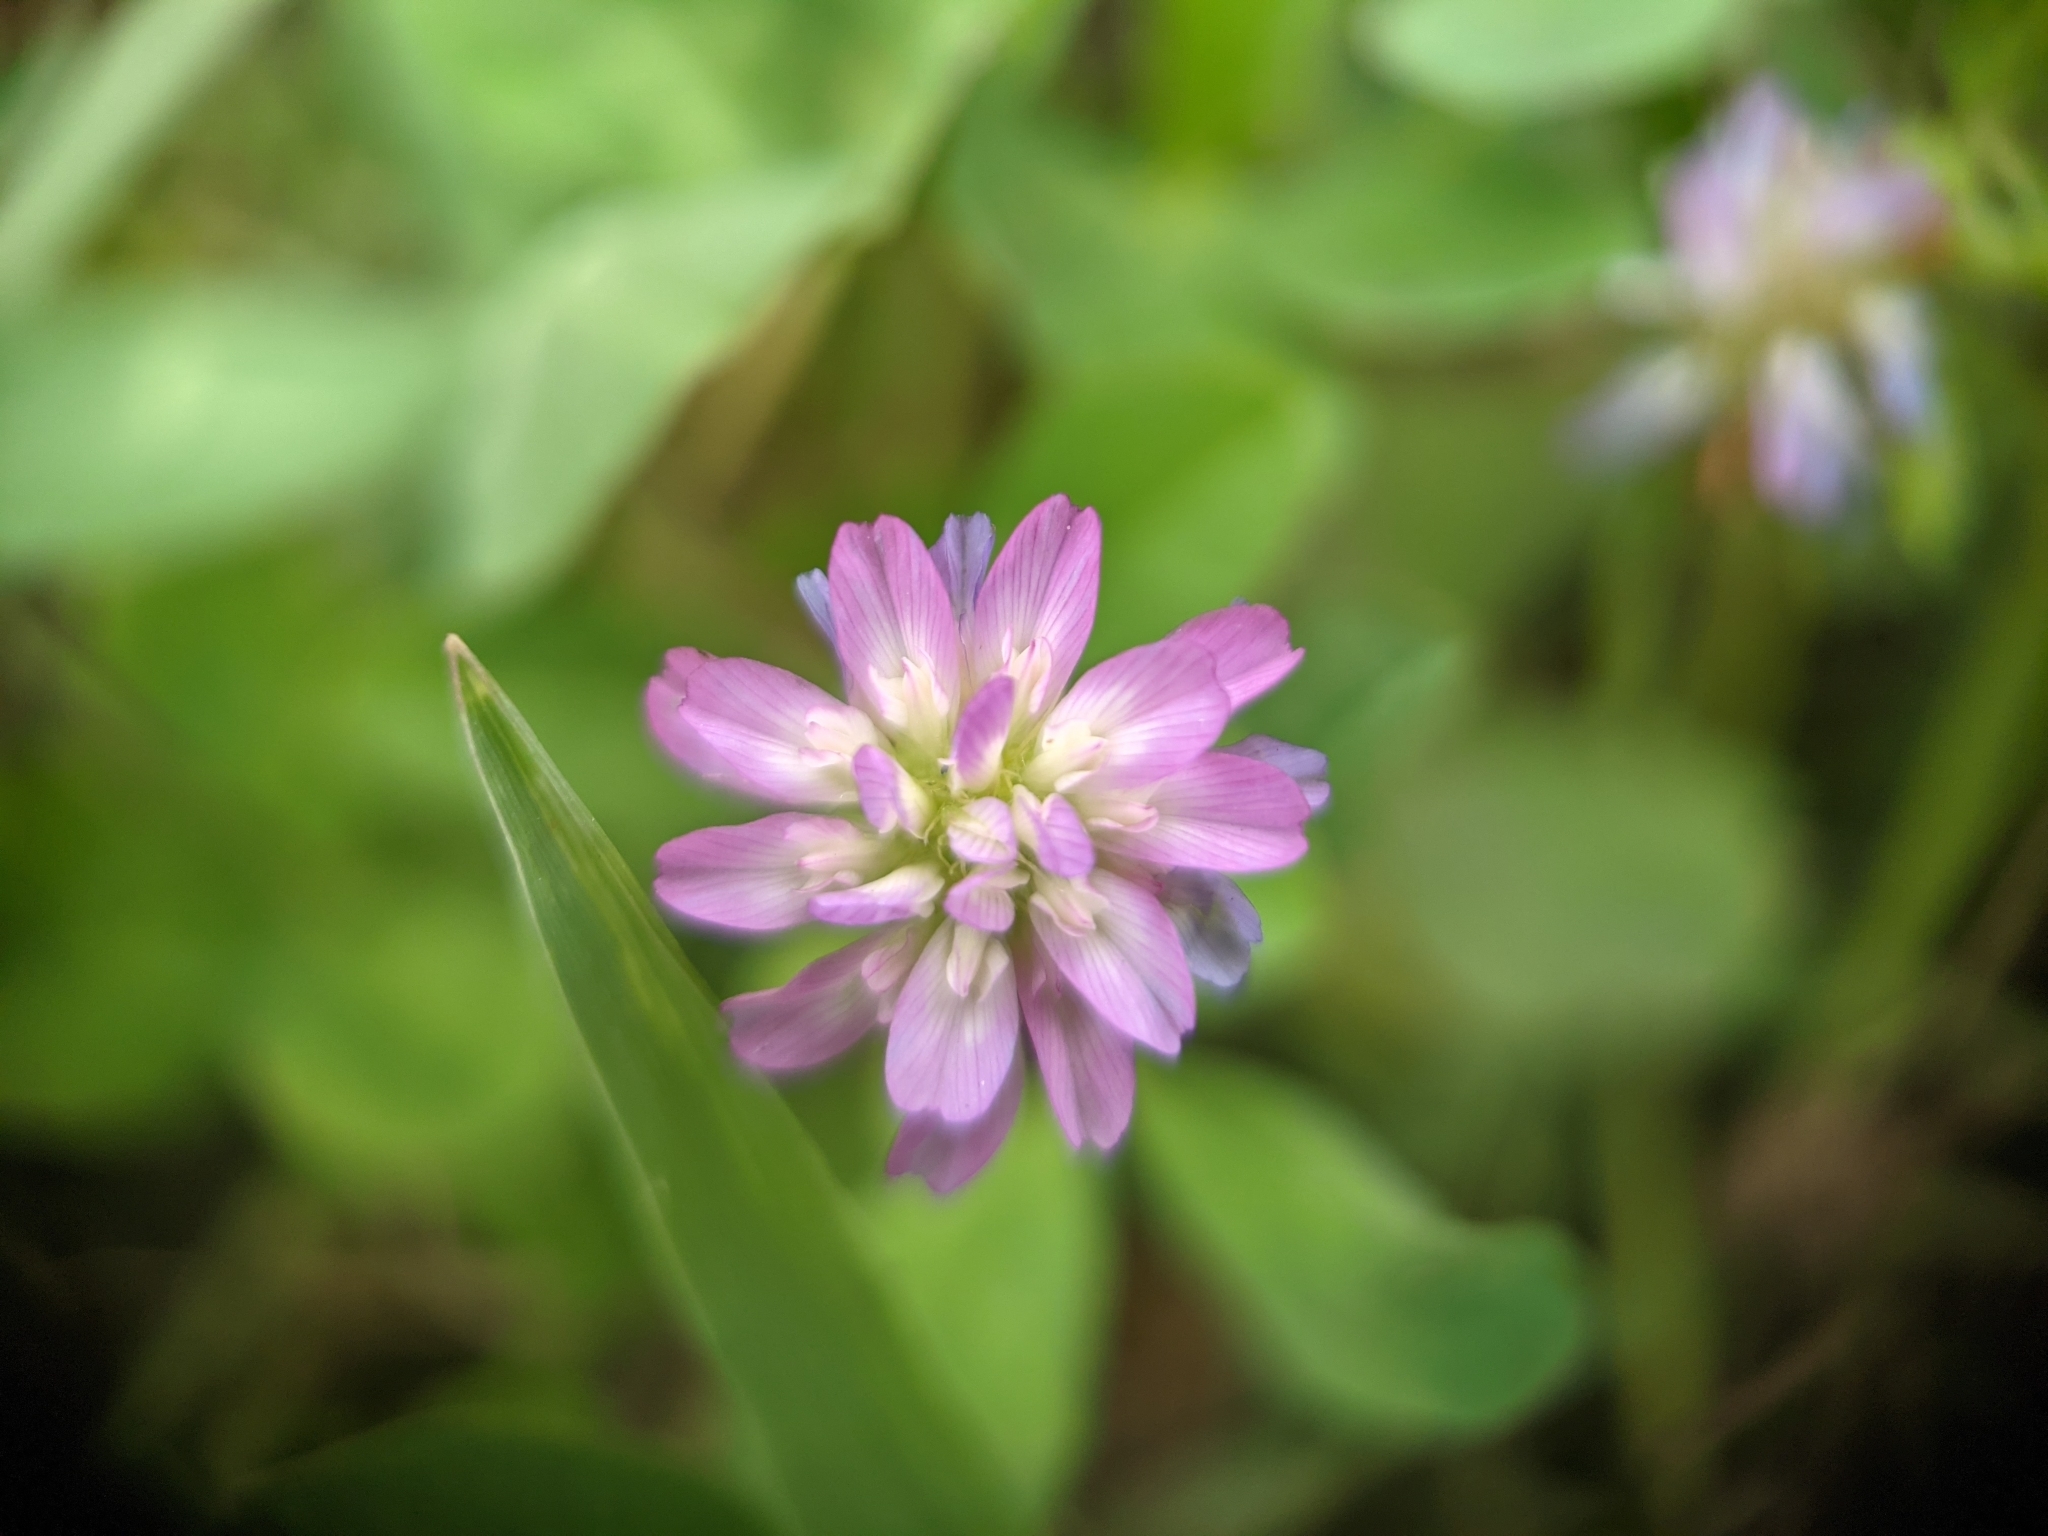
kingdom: Plantae
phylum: Tracheophyta
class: Magnoliopsida
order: Fabales
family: Fabaceae
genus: Trifolium
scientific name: Trifolium resupinatum
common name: Reversed clover
